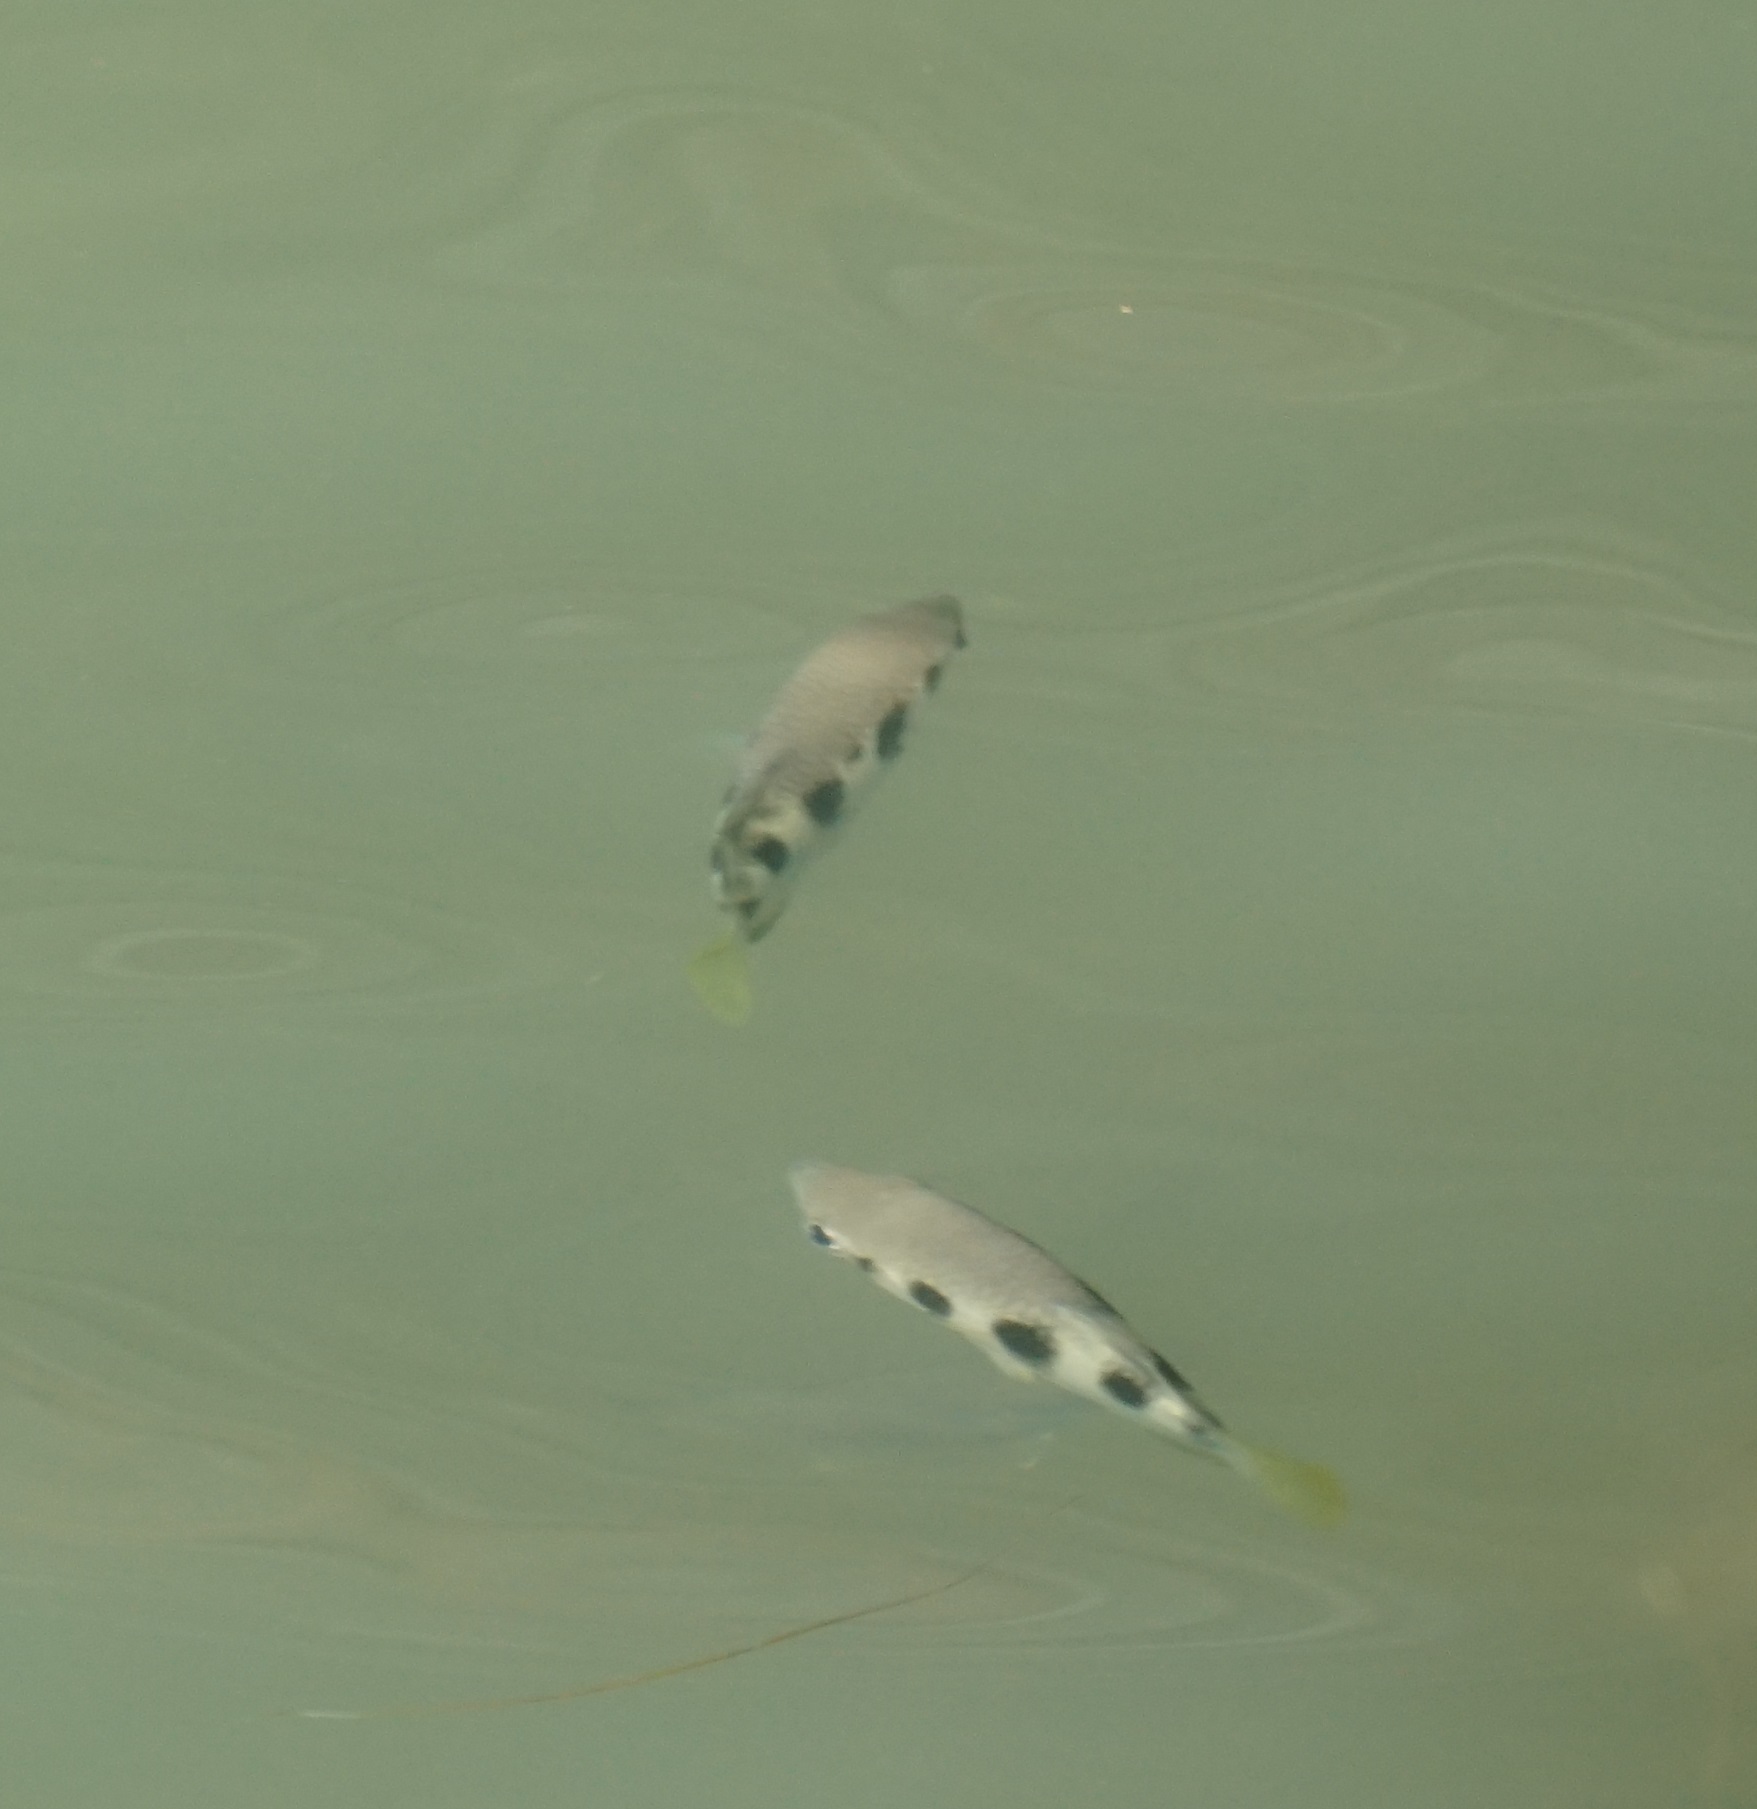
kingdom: Animalia
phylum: Chordata
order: Perciformes
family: Toxotidae
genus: Toxotes
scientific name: Toxotes jaculatrix
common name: Banded archerfish
